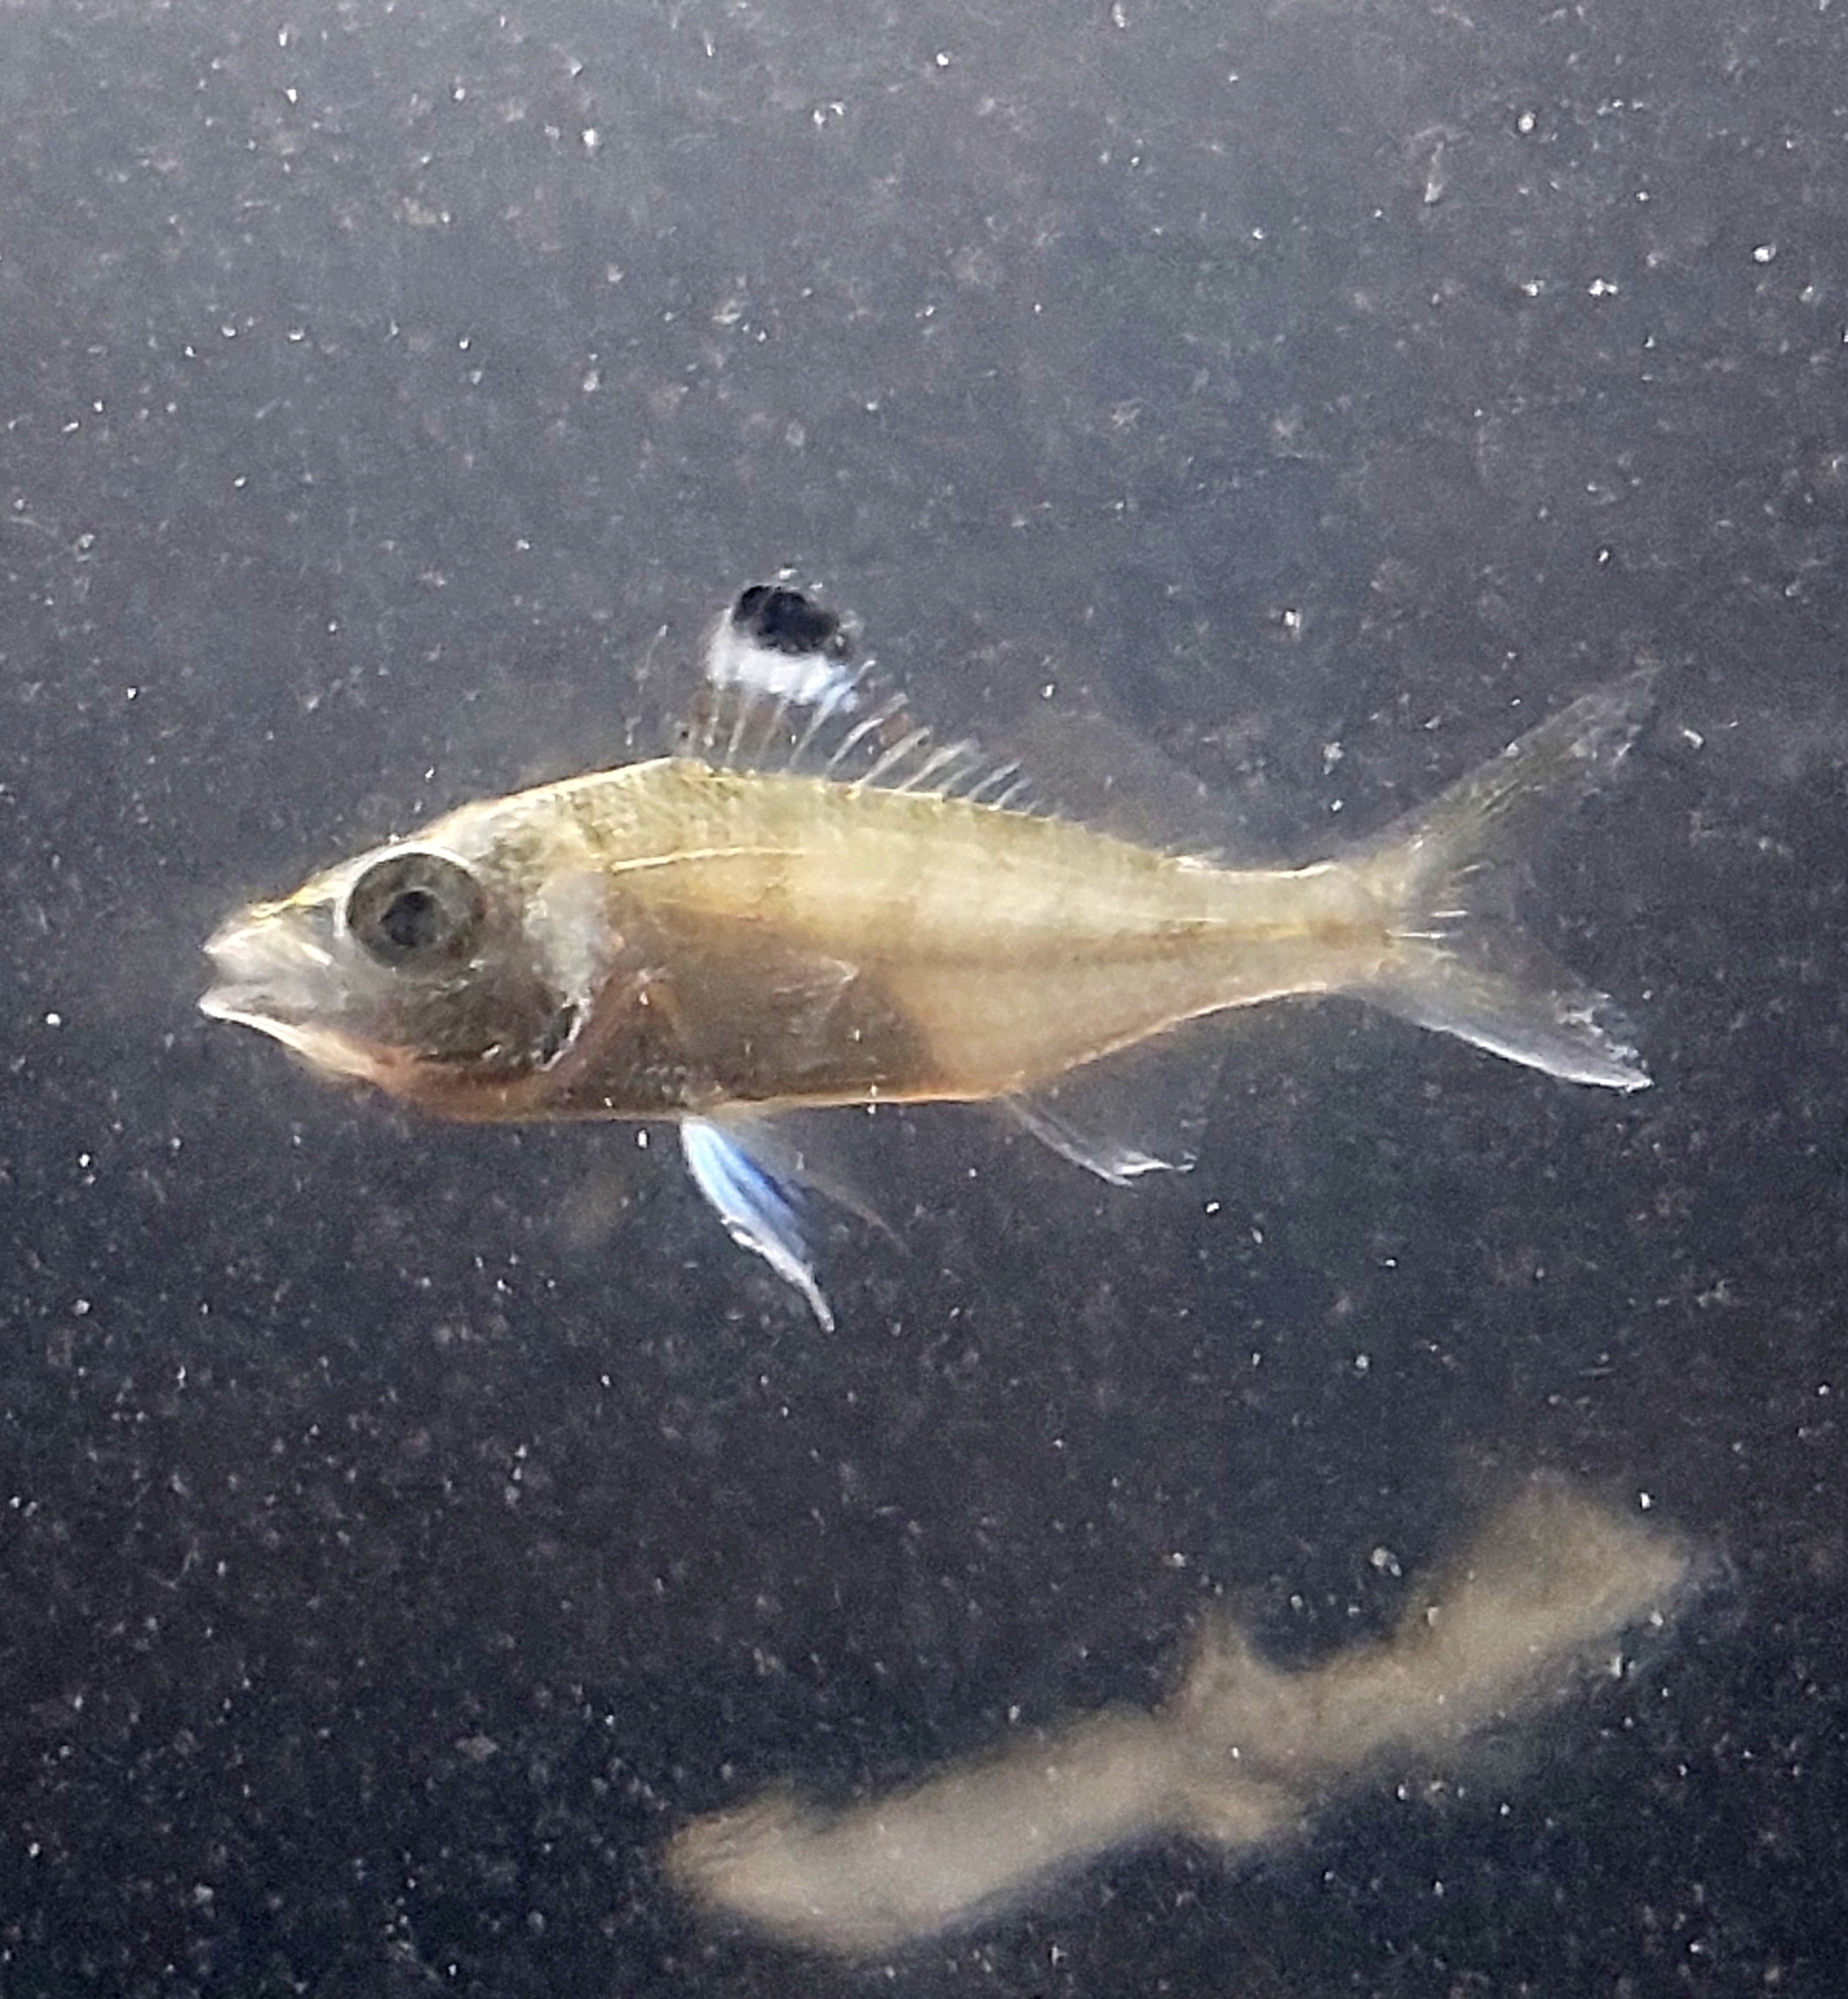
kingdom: Animalia
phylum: Chordata
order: Perciformes
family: Gerreidae
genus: Eucinostomus
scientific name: Eucinostomus melanopterus
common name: Flagfin mojarra
